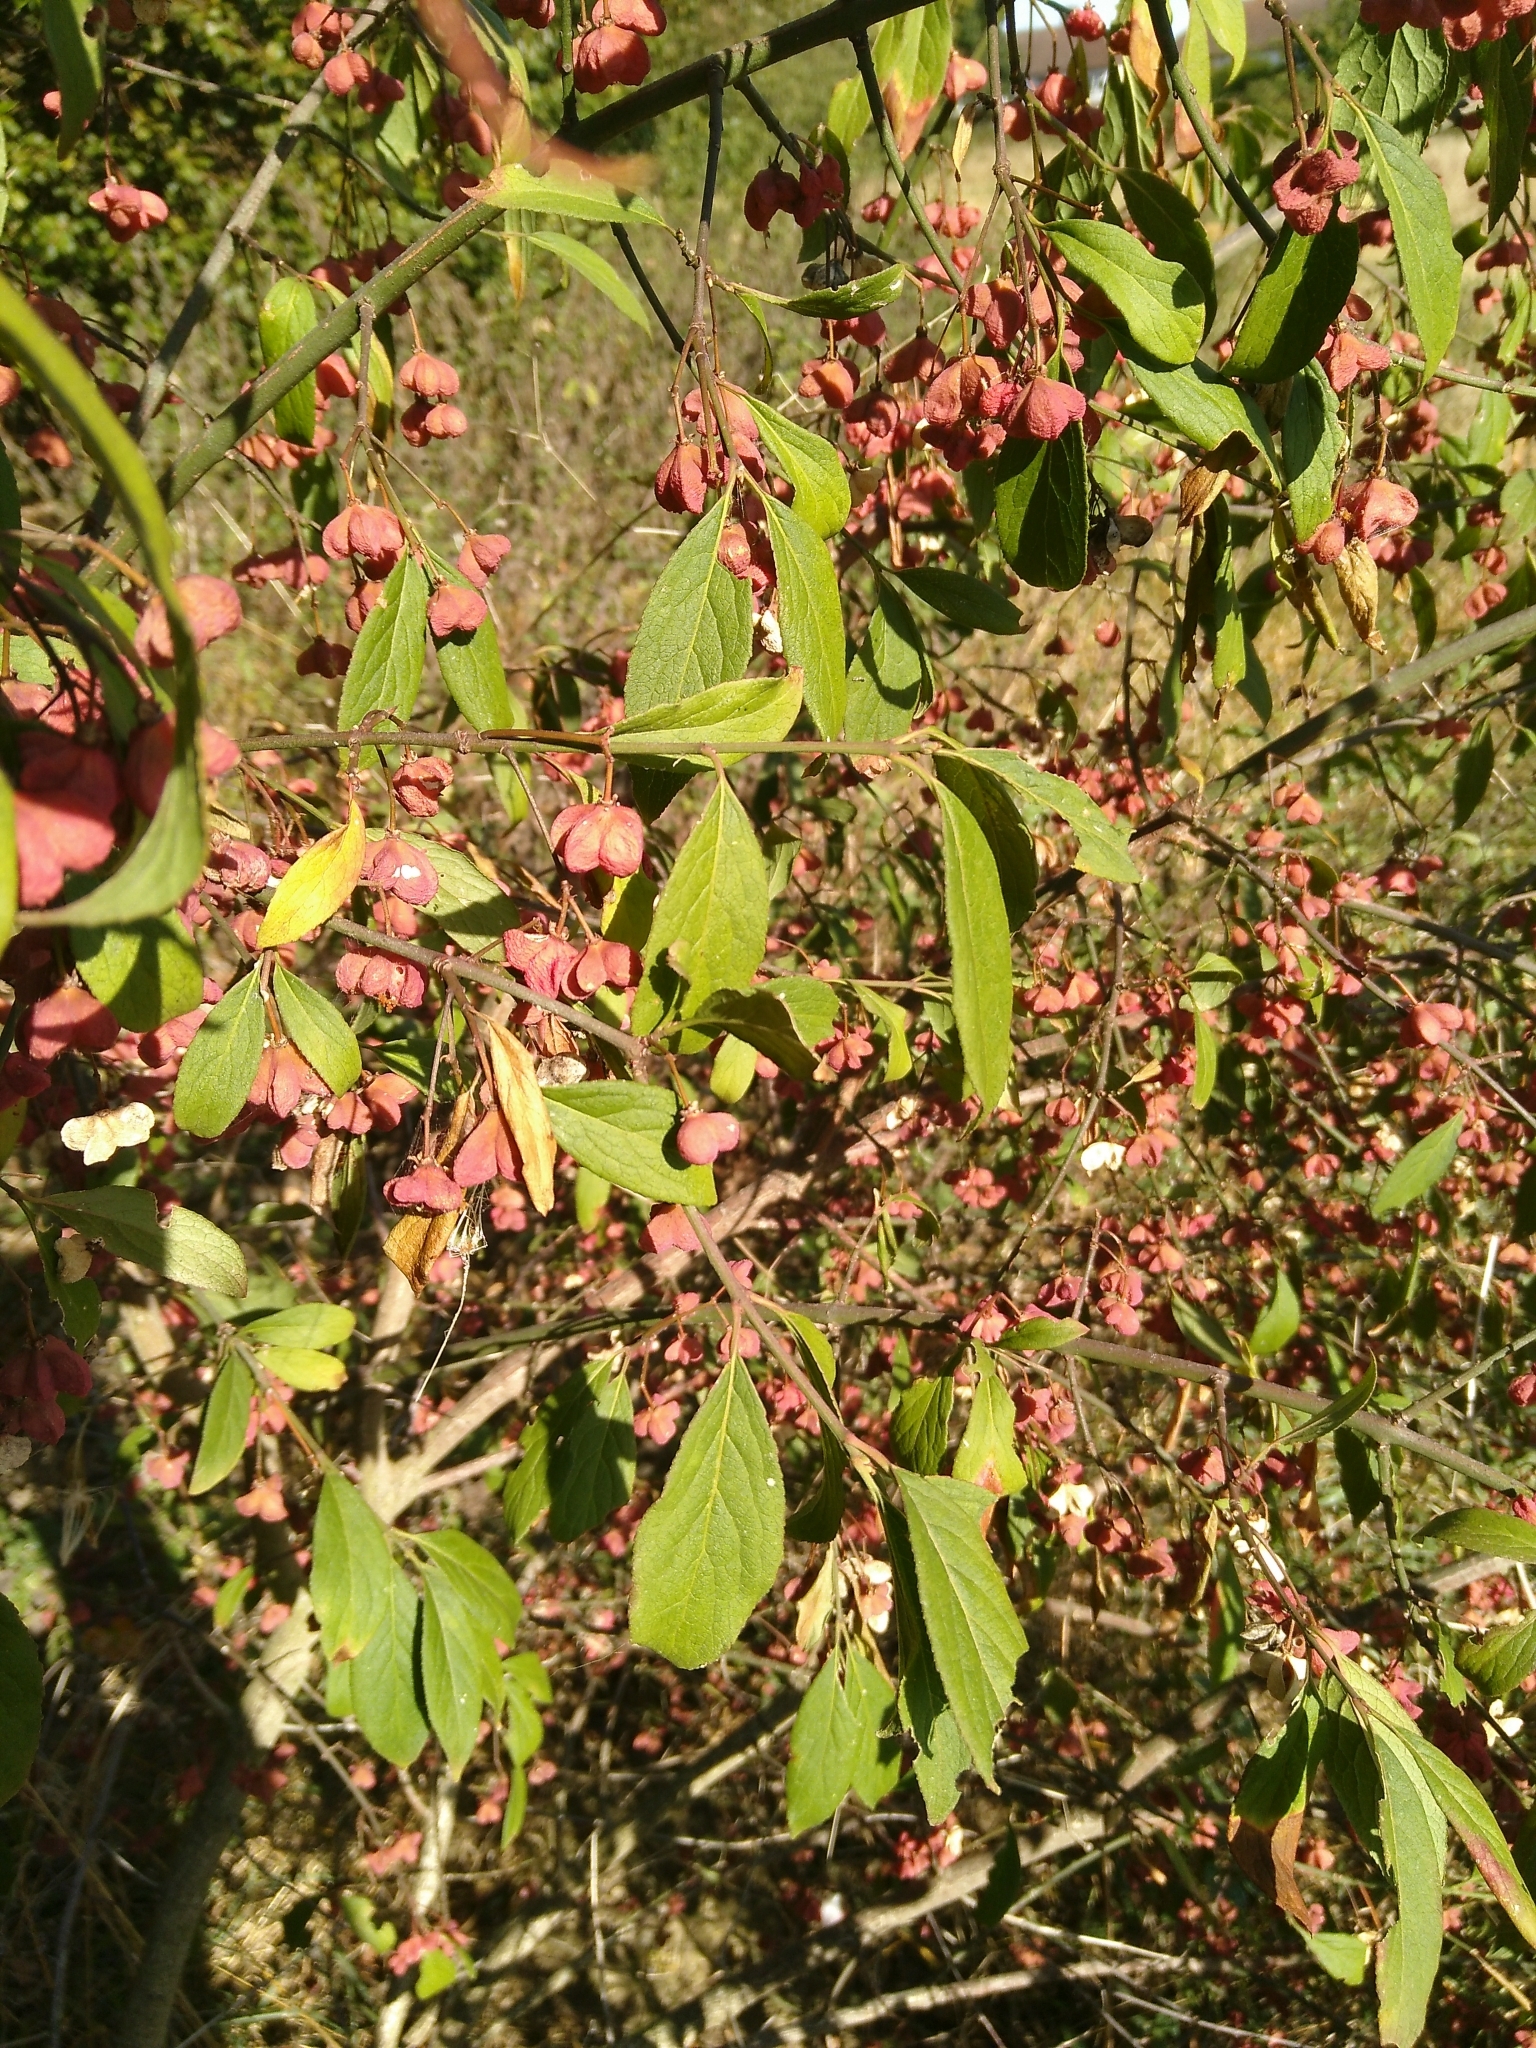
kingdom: Plantae
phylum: Tracheophyta
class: Magnoliopsida
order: Celastrales
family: Celastraceae
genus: Euonymus
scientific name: Euonymus europaeus
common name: Spindle
